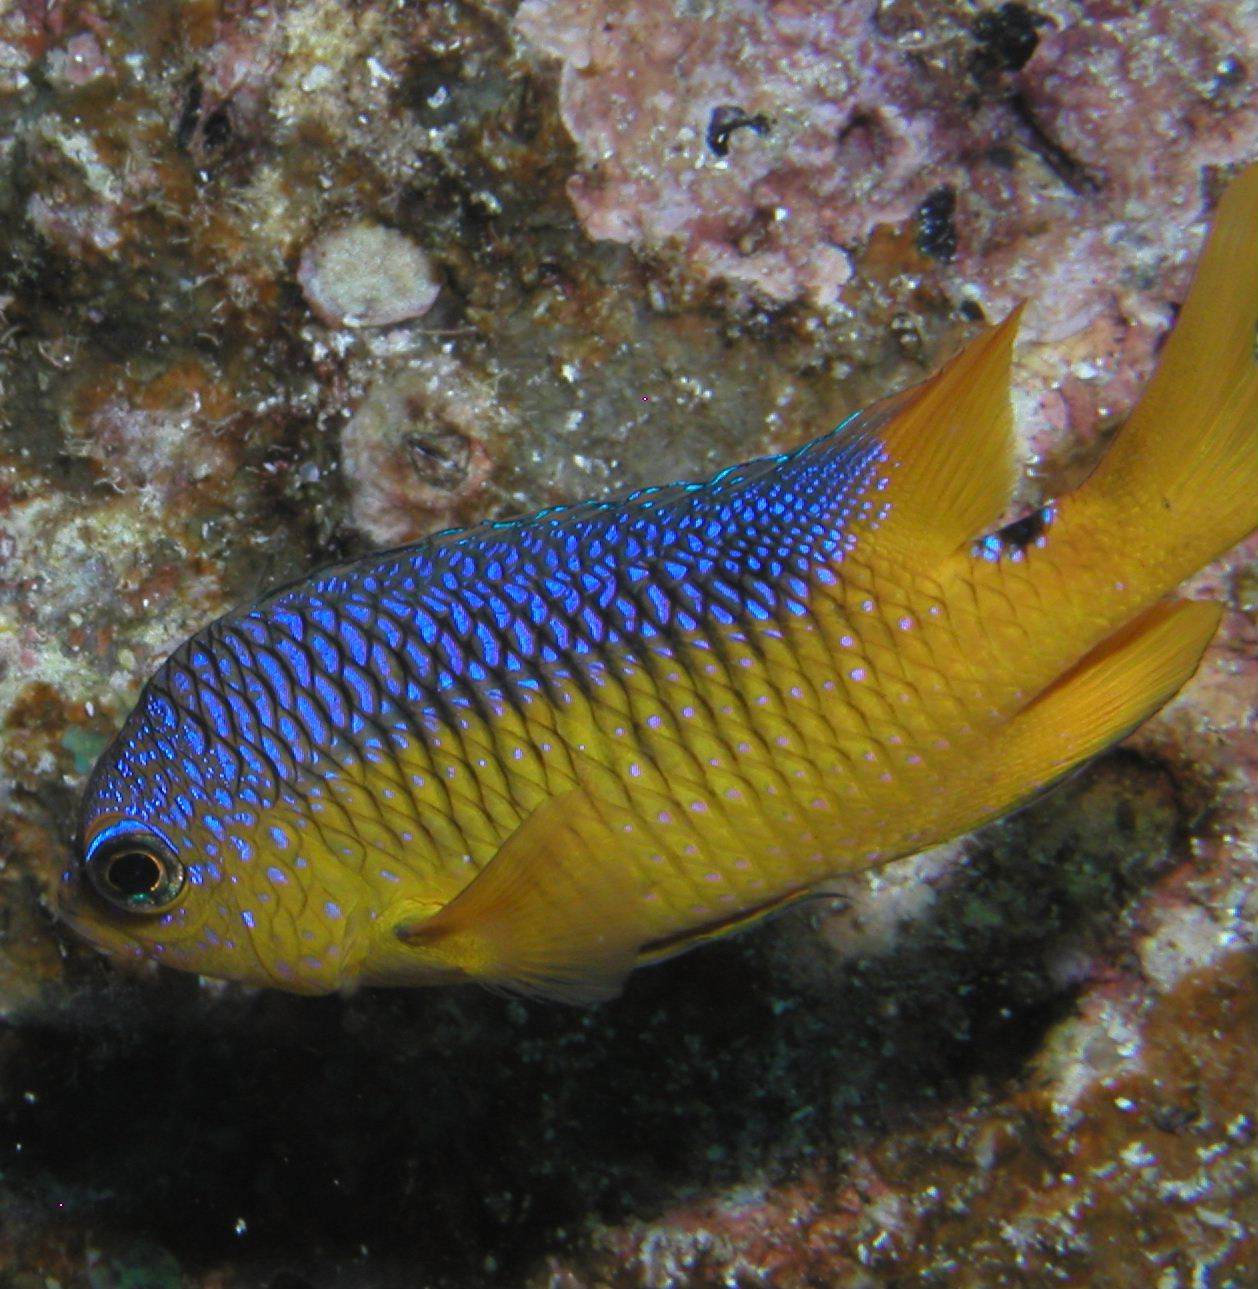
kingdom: Animalia
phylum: Chordata
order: Perciformes
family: Pomacentridae
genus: Stegastes
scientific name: Stegastes flavilatus
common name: Beaubrummel
